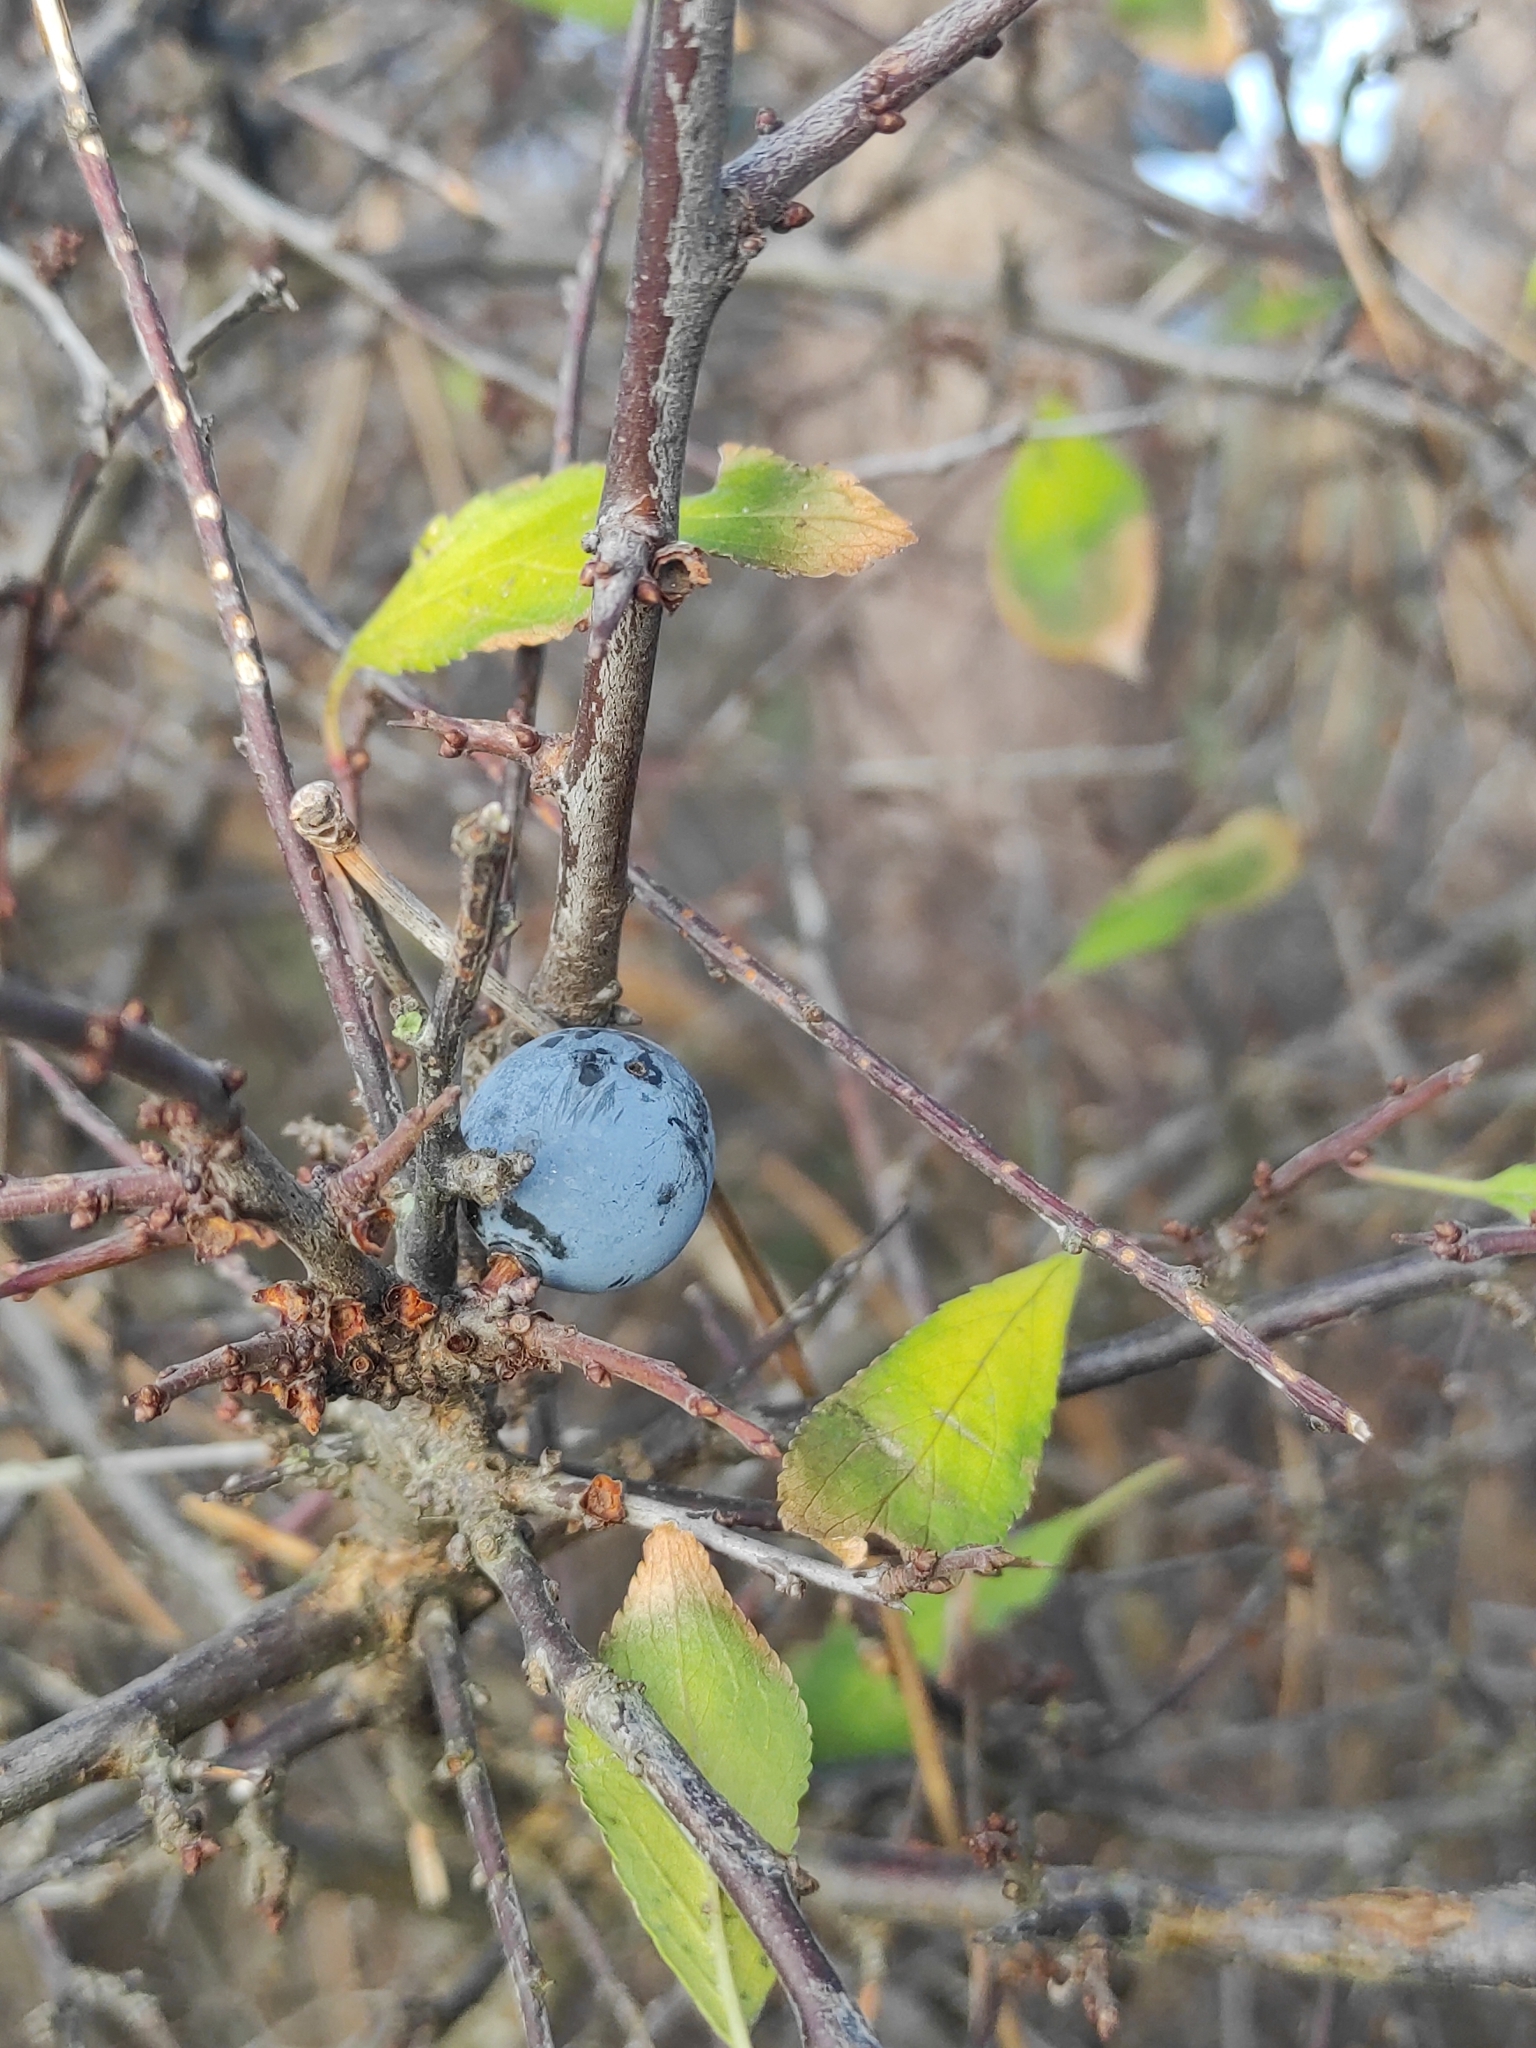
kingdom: Plantae
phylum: Tracheophyta
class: Magnoliopsida
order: Rosales
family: Rosaceae
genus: Prunus
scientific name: Prunus spinosa
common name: Blackthorn
